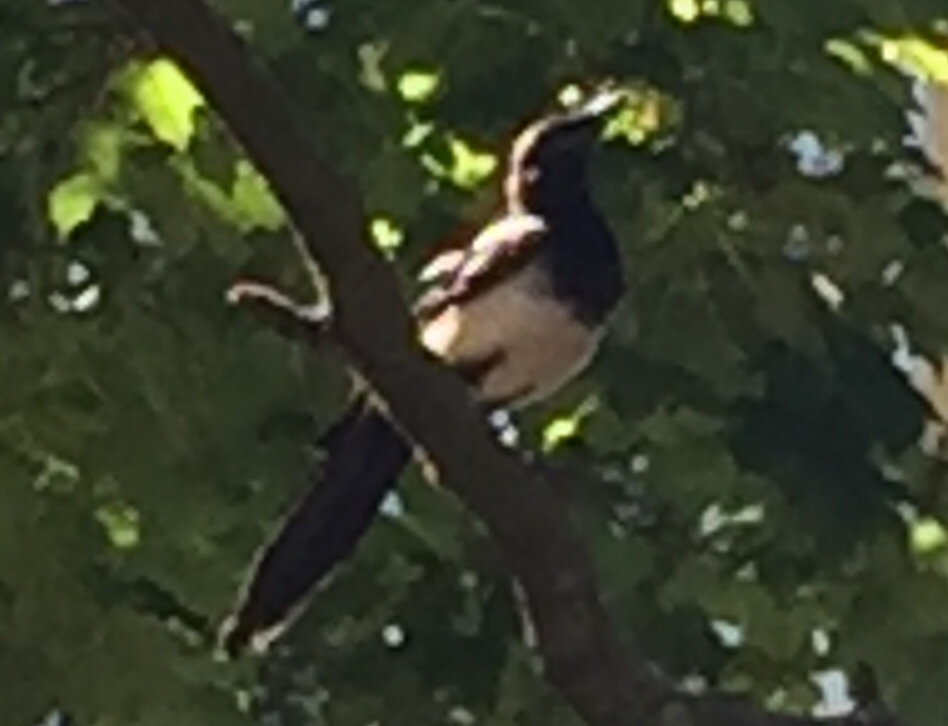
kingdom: Animalia
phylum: Chordata
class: Aves
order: Passeriformes
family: Corvidae
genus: Pica
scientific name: Pica pica
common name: Eurasian magpie
